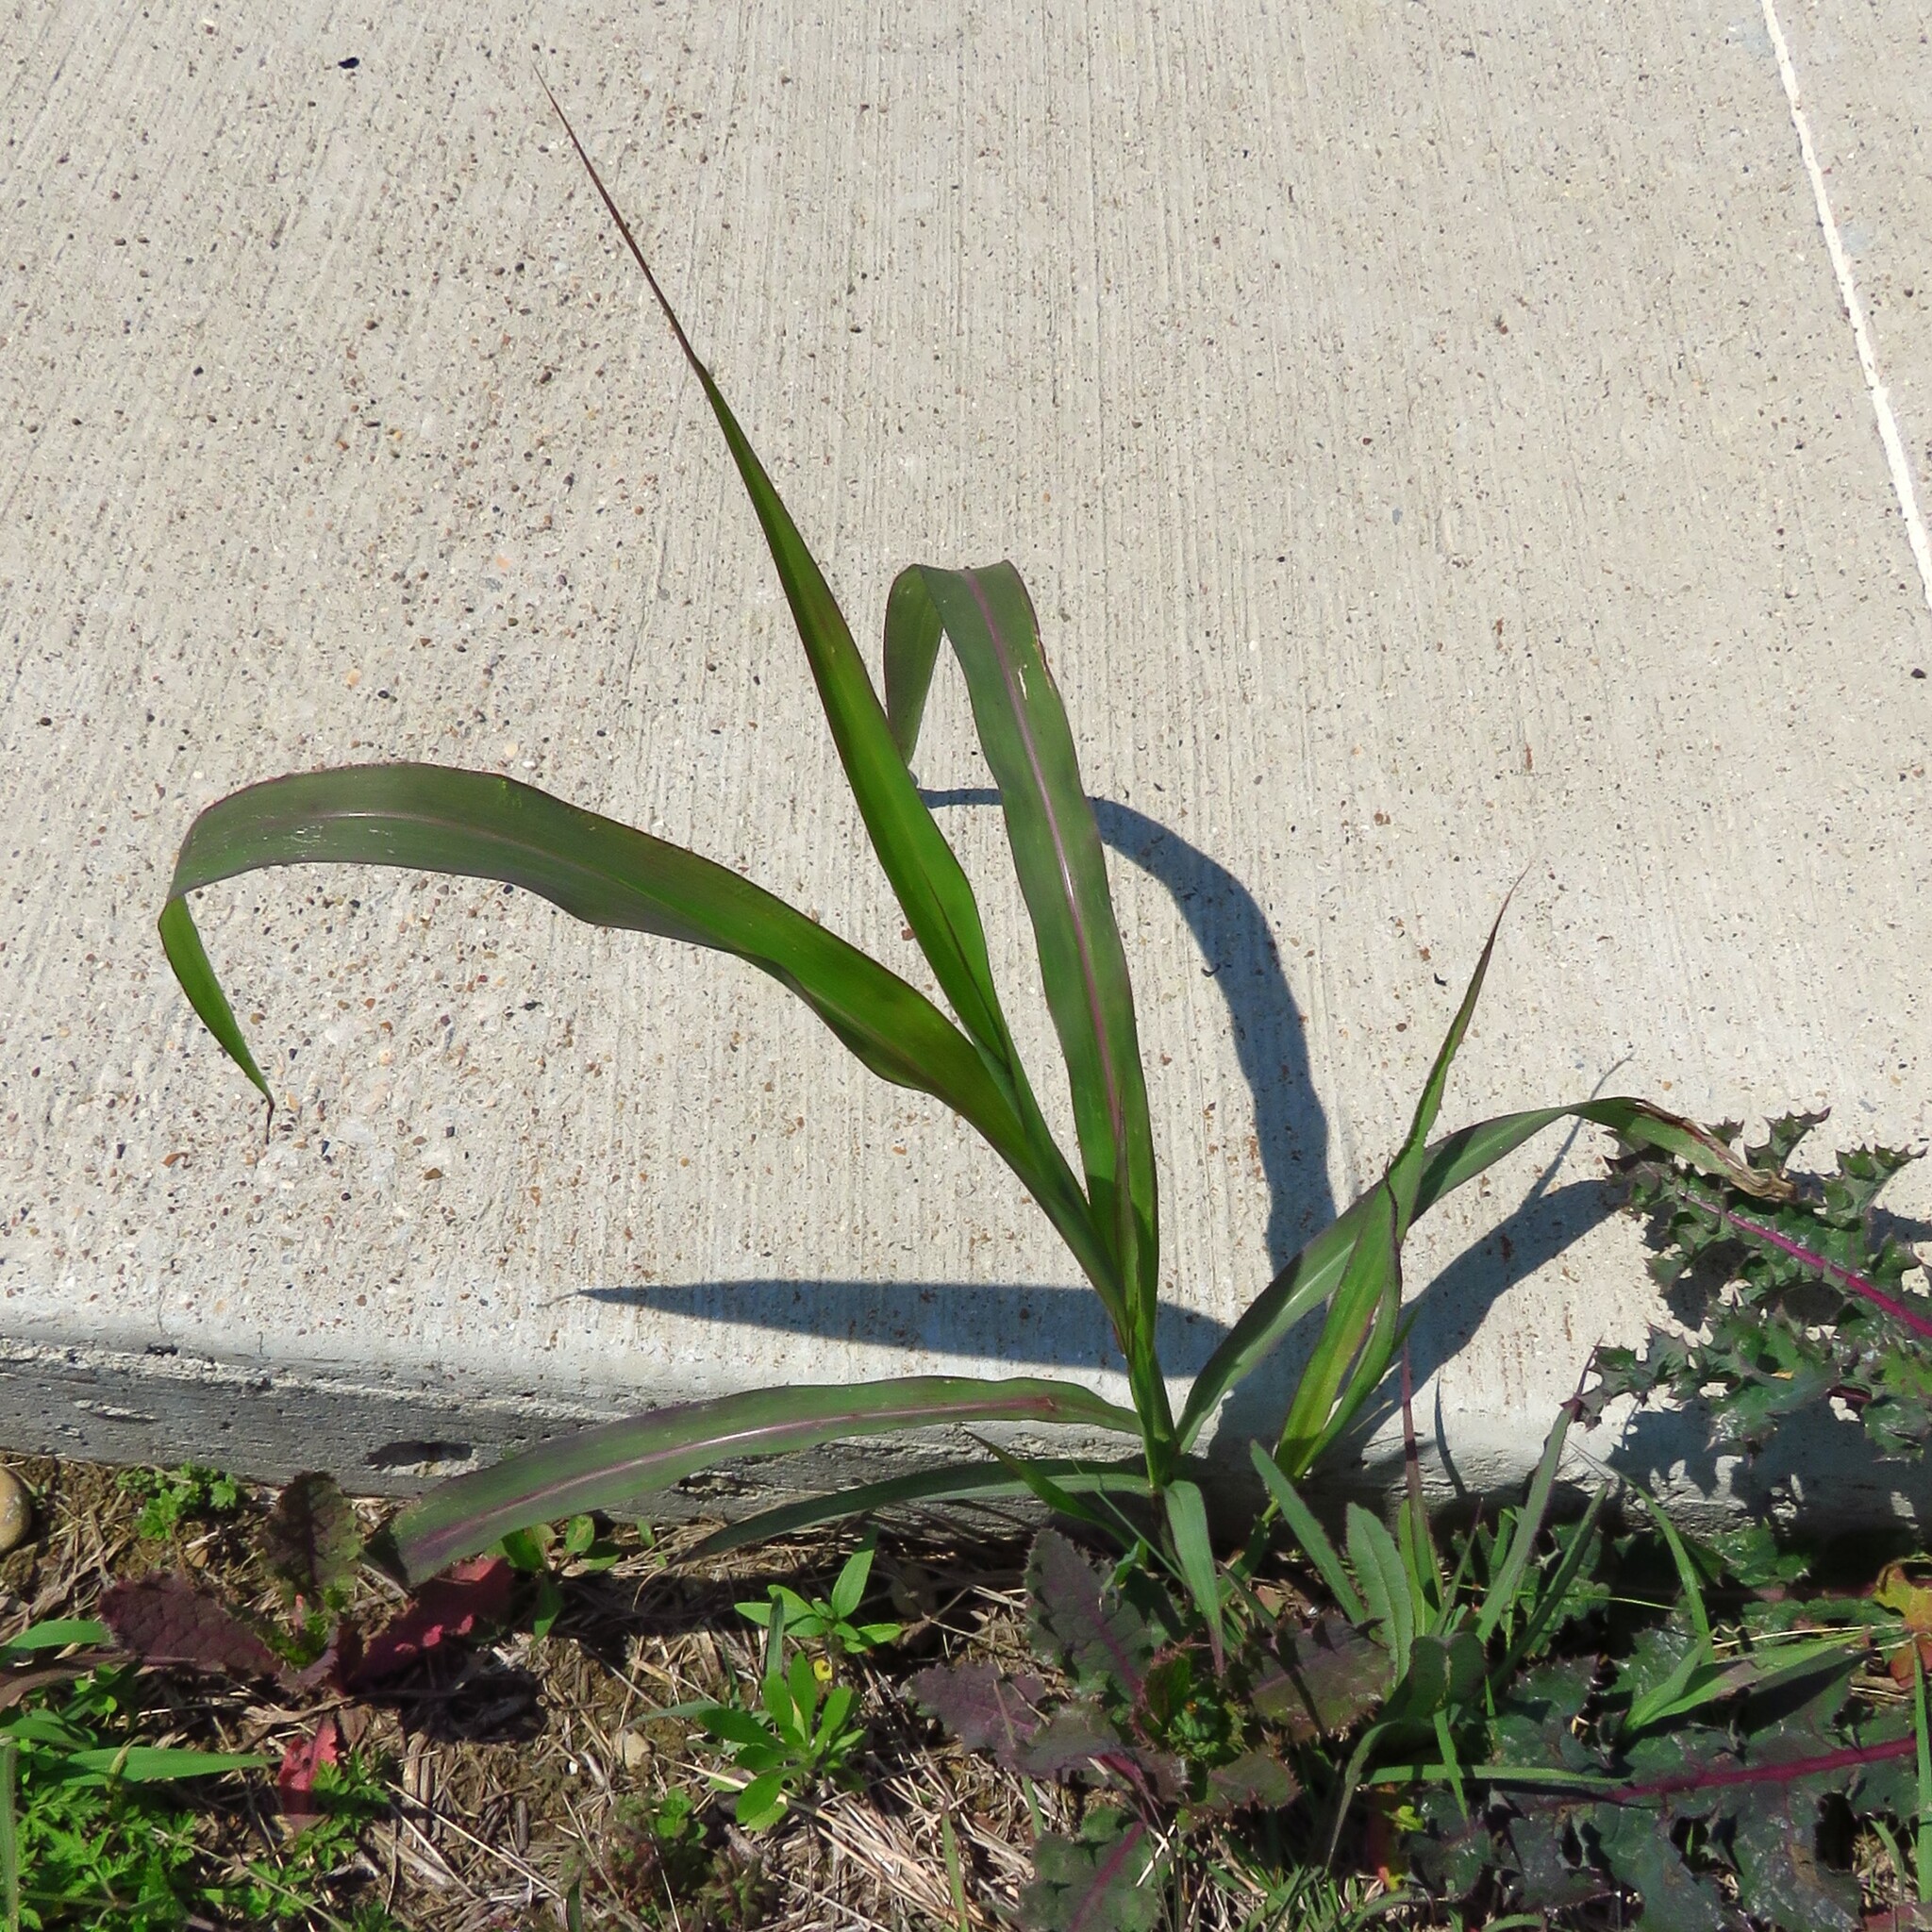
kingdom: Plantae
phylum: Tracheophyta
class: Liliopsida
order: Poales
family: Poaceae
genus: Sorghum
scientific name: Sorghum halepense
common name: Johnson-grass
